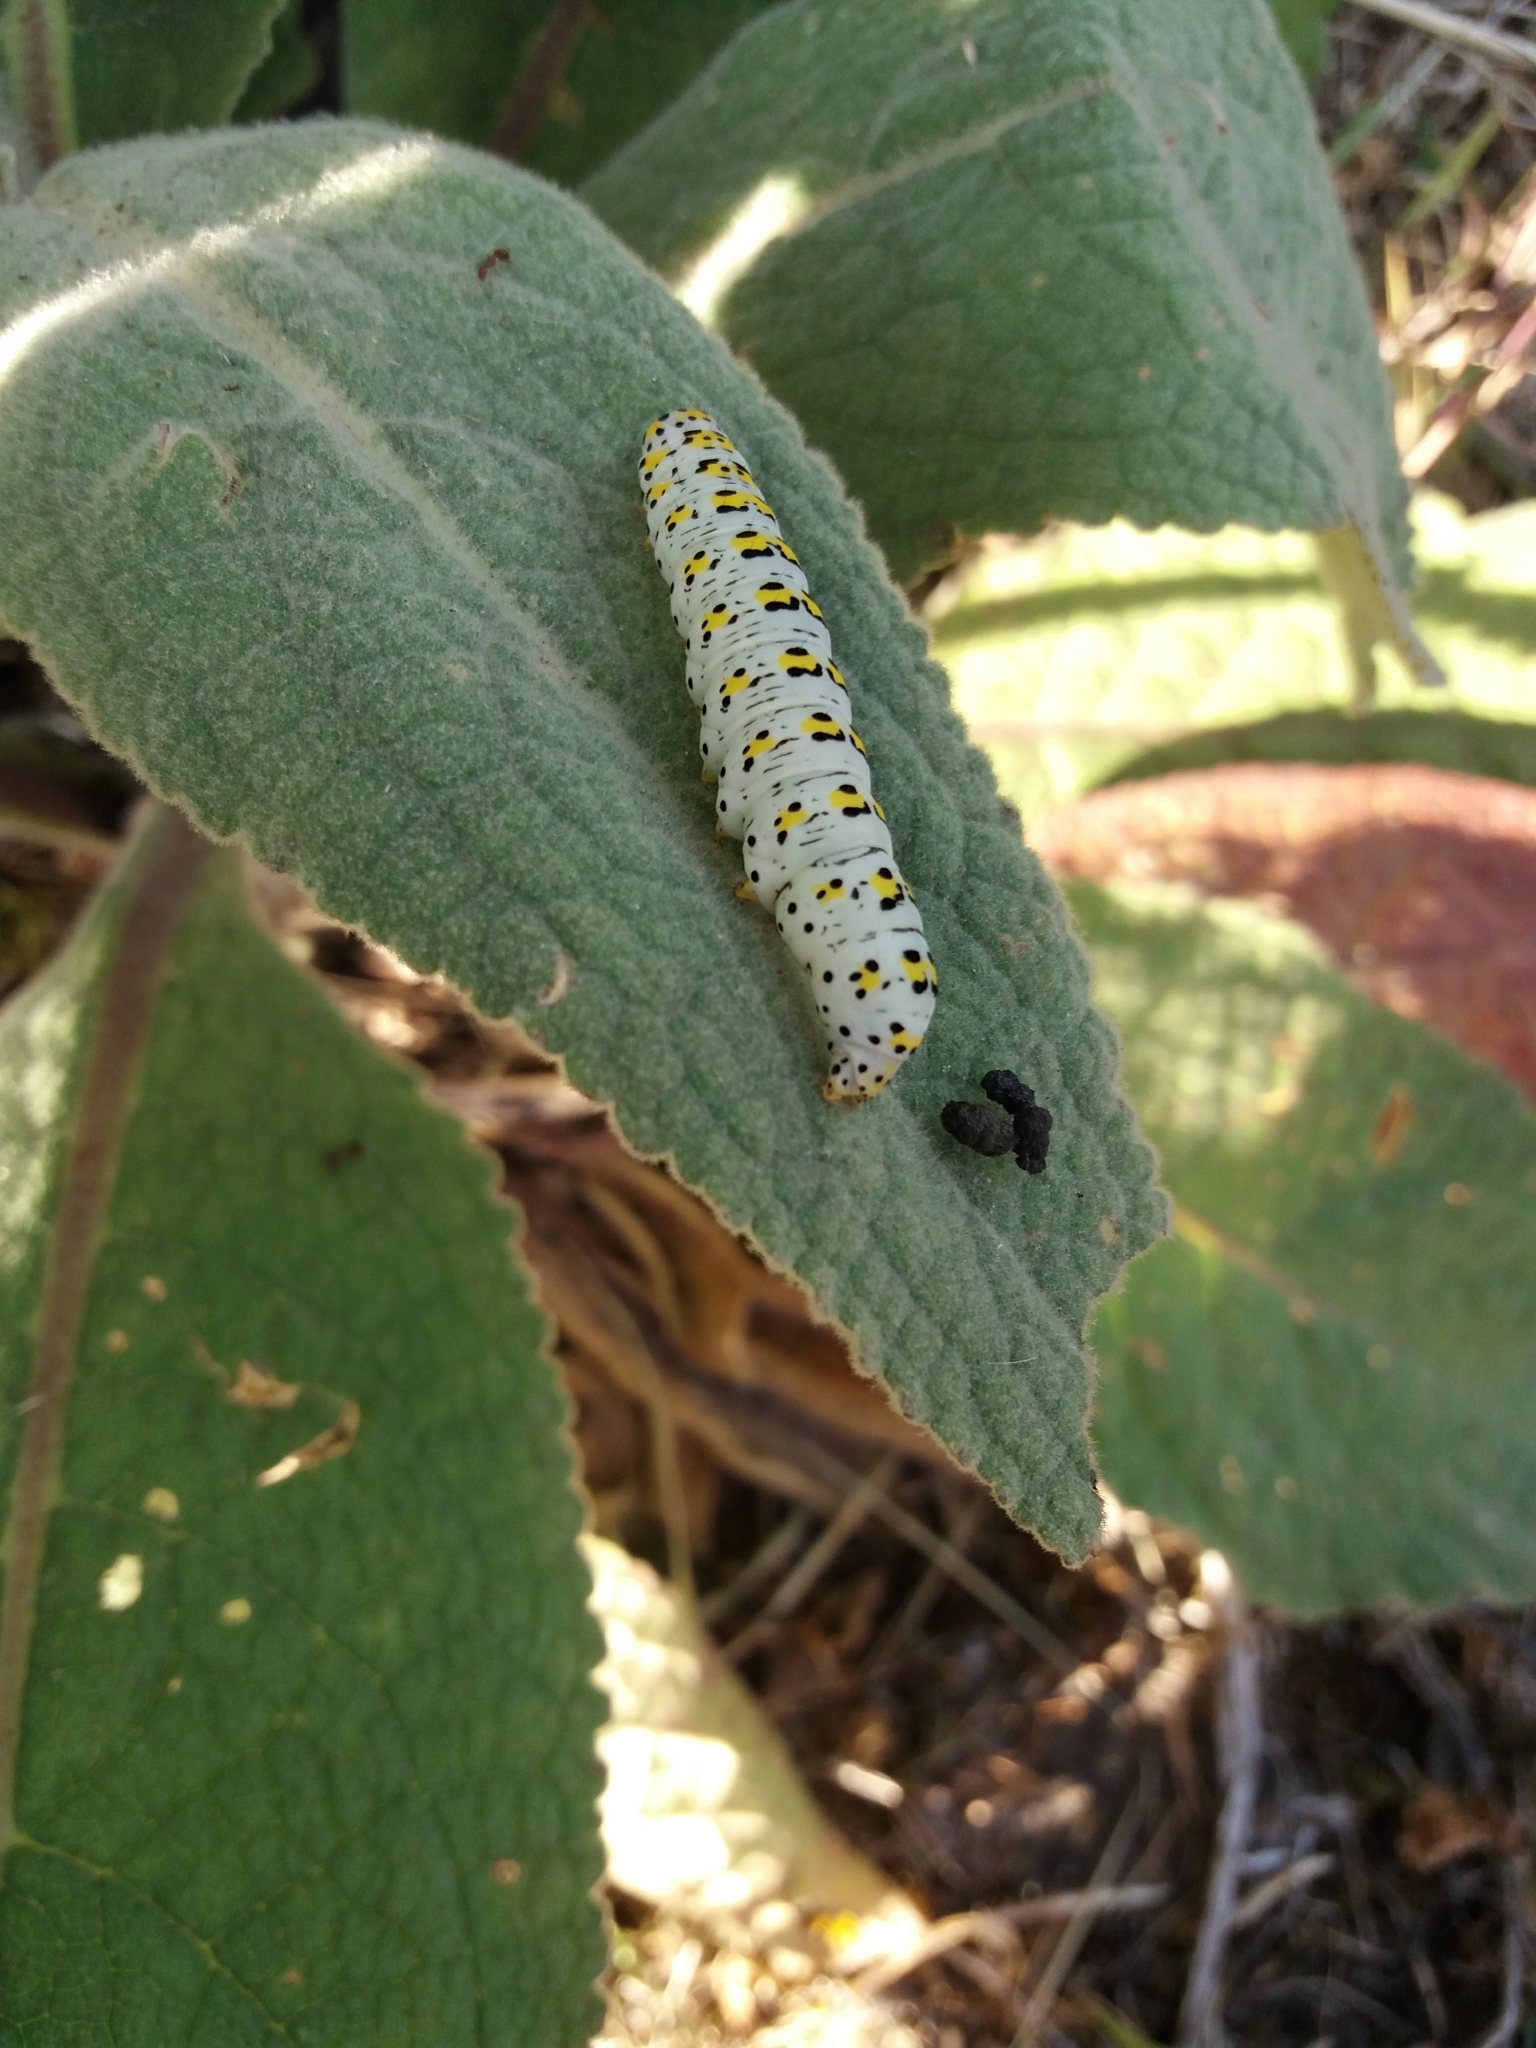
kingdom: Animalia
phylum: Arthropoda
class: Insecta
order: Lepidoptera
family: Noctuidae
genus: Cucullia
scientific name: Cucullia verbasci
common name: Mullein
